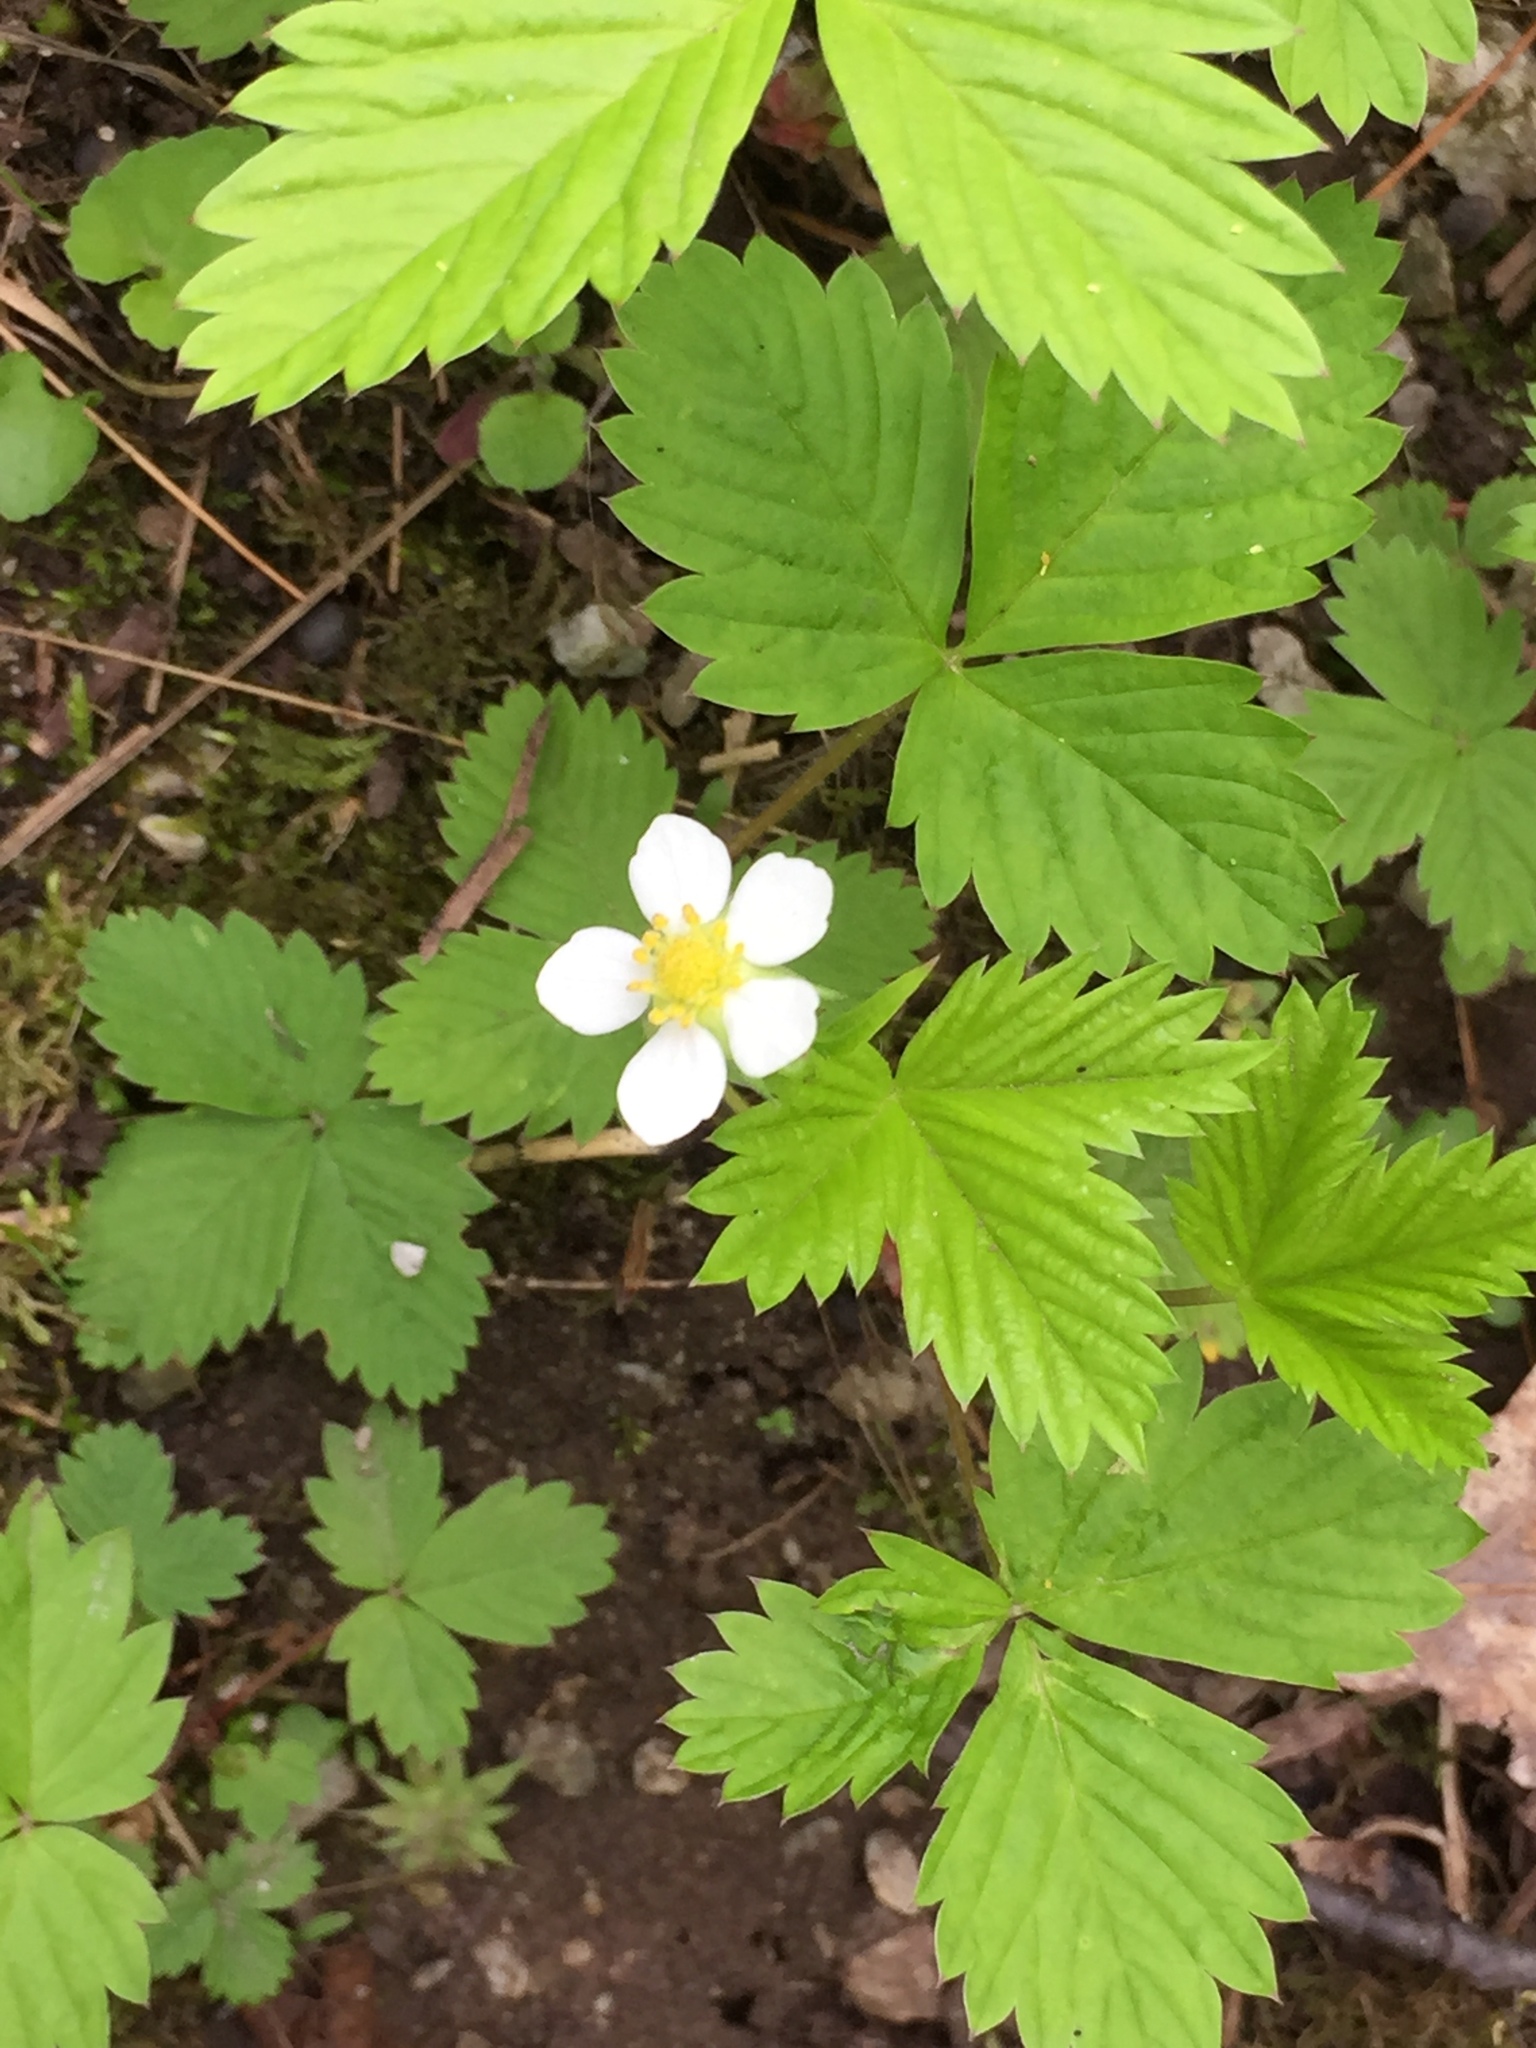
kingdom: Plantae
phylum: Tracheophyta
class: Magnoliopsida
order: Rosales
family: Rosaceae
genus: Fragaria
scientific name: Fragaria vesca
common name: Wild strawberry
